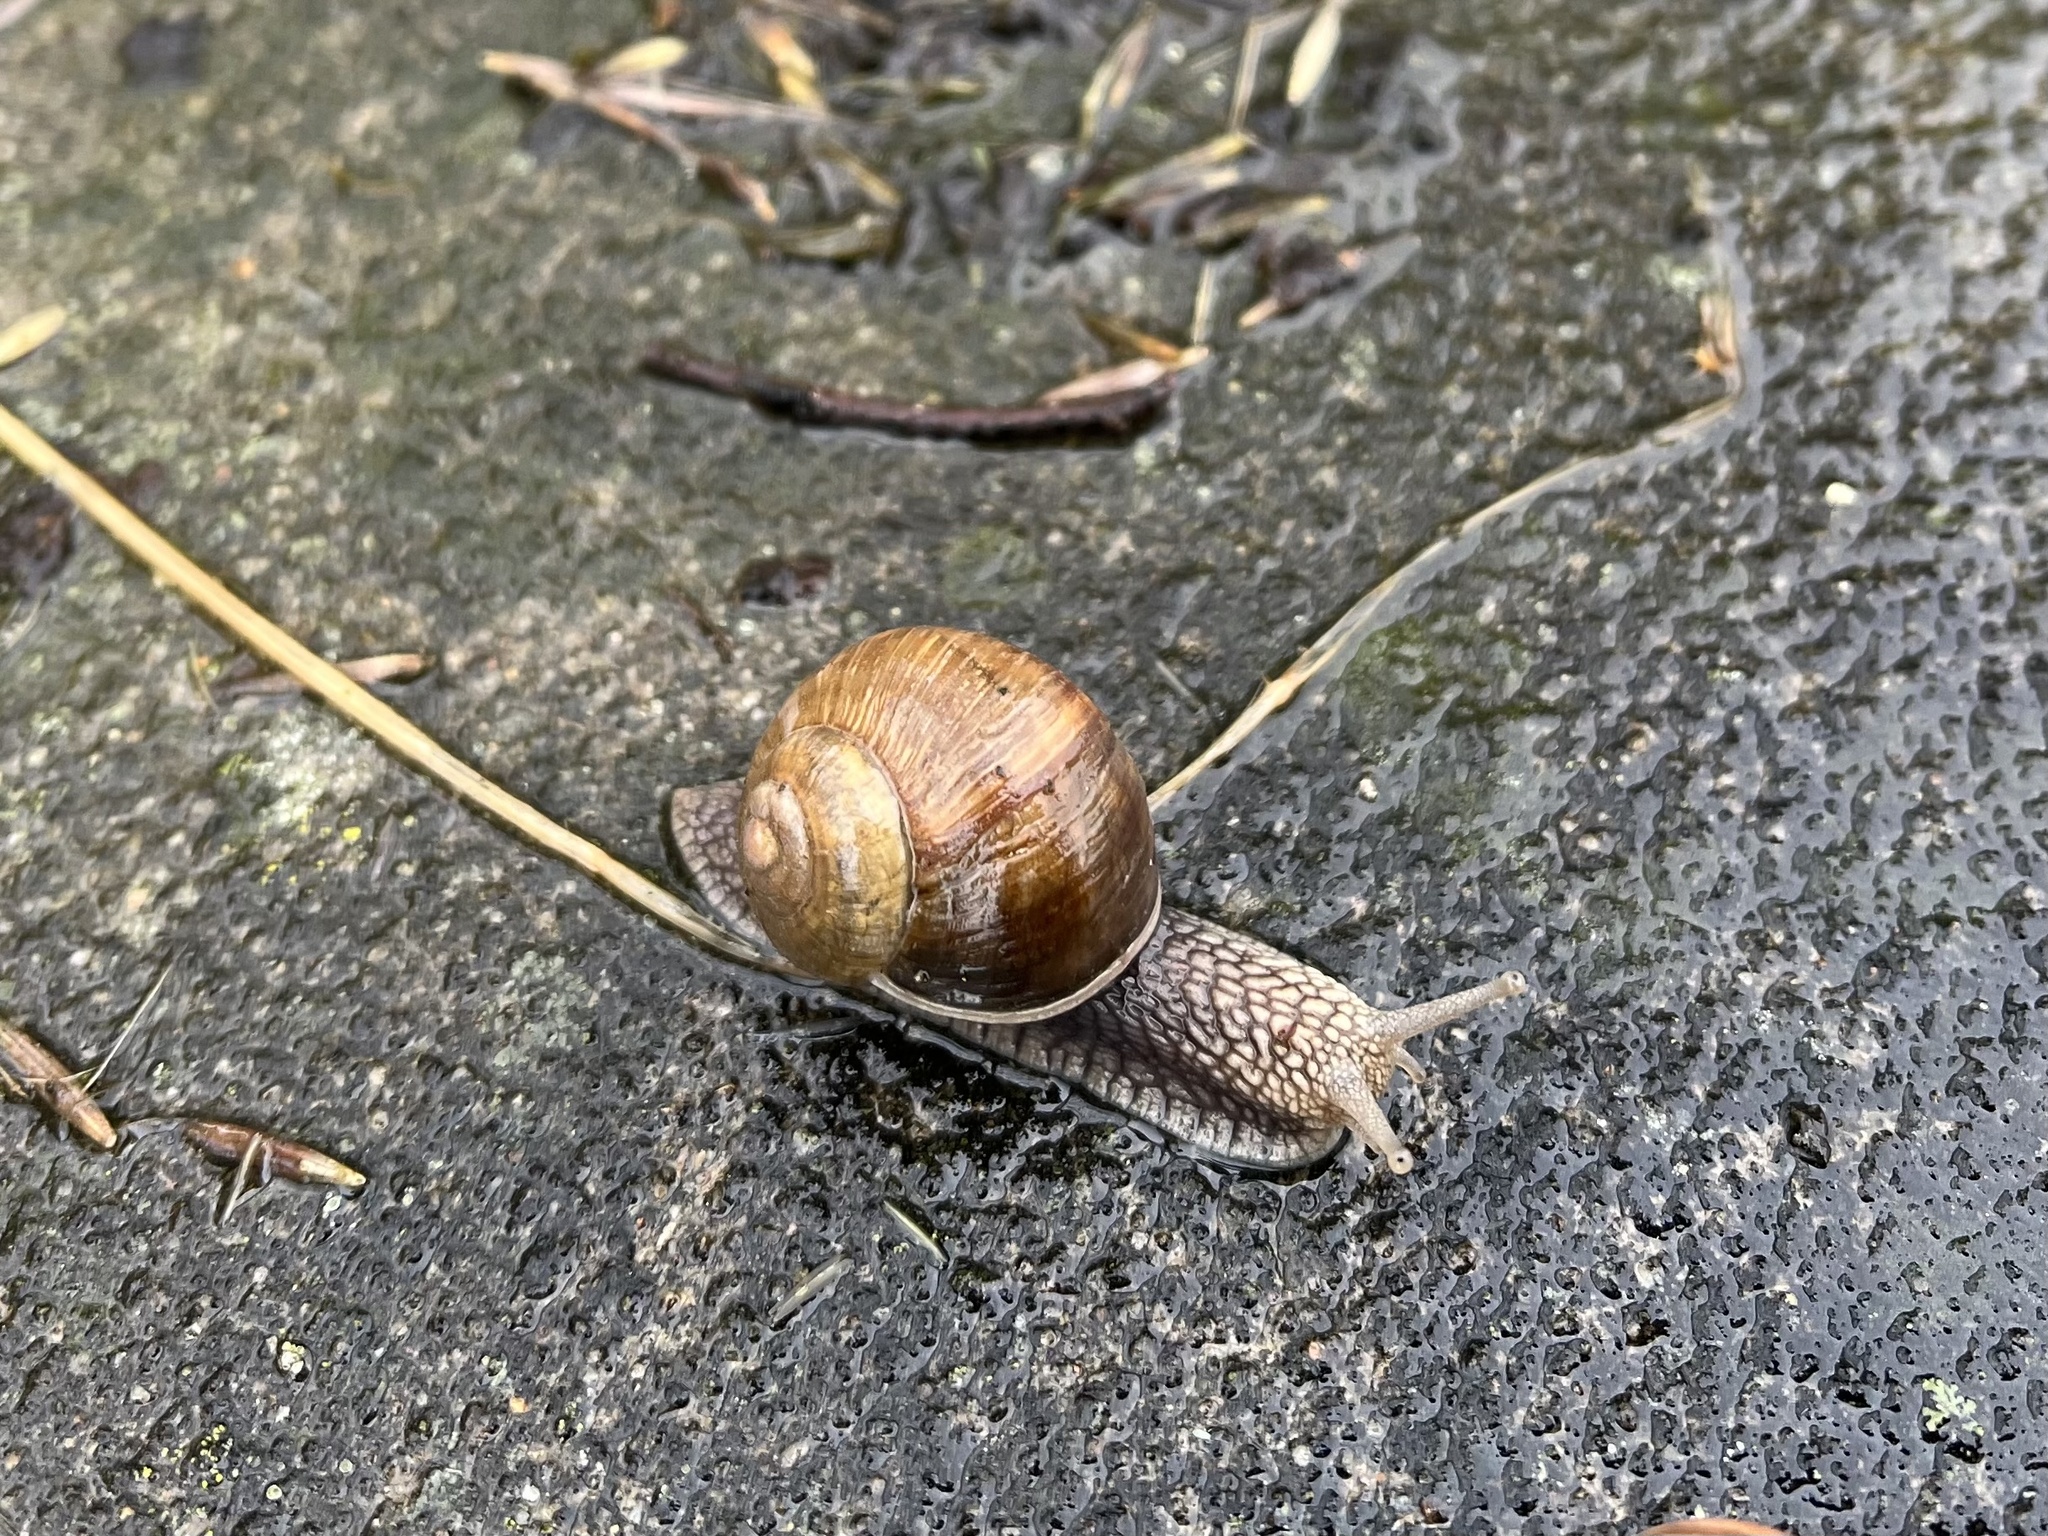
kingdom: Animalia
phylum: Mollusca
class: Gastropoda
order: Stylommatophora
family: Helicidae
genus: Helix
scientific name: Helix pomatia
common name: Roman snail
